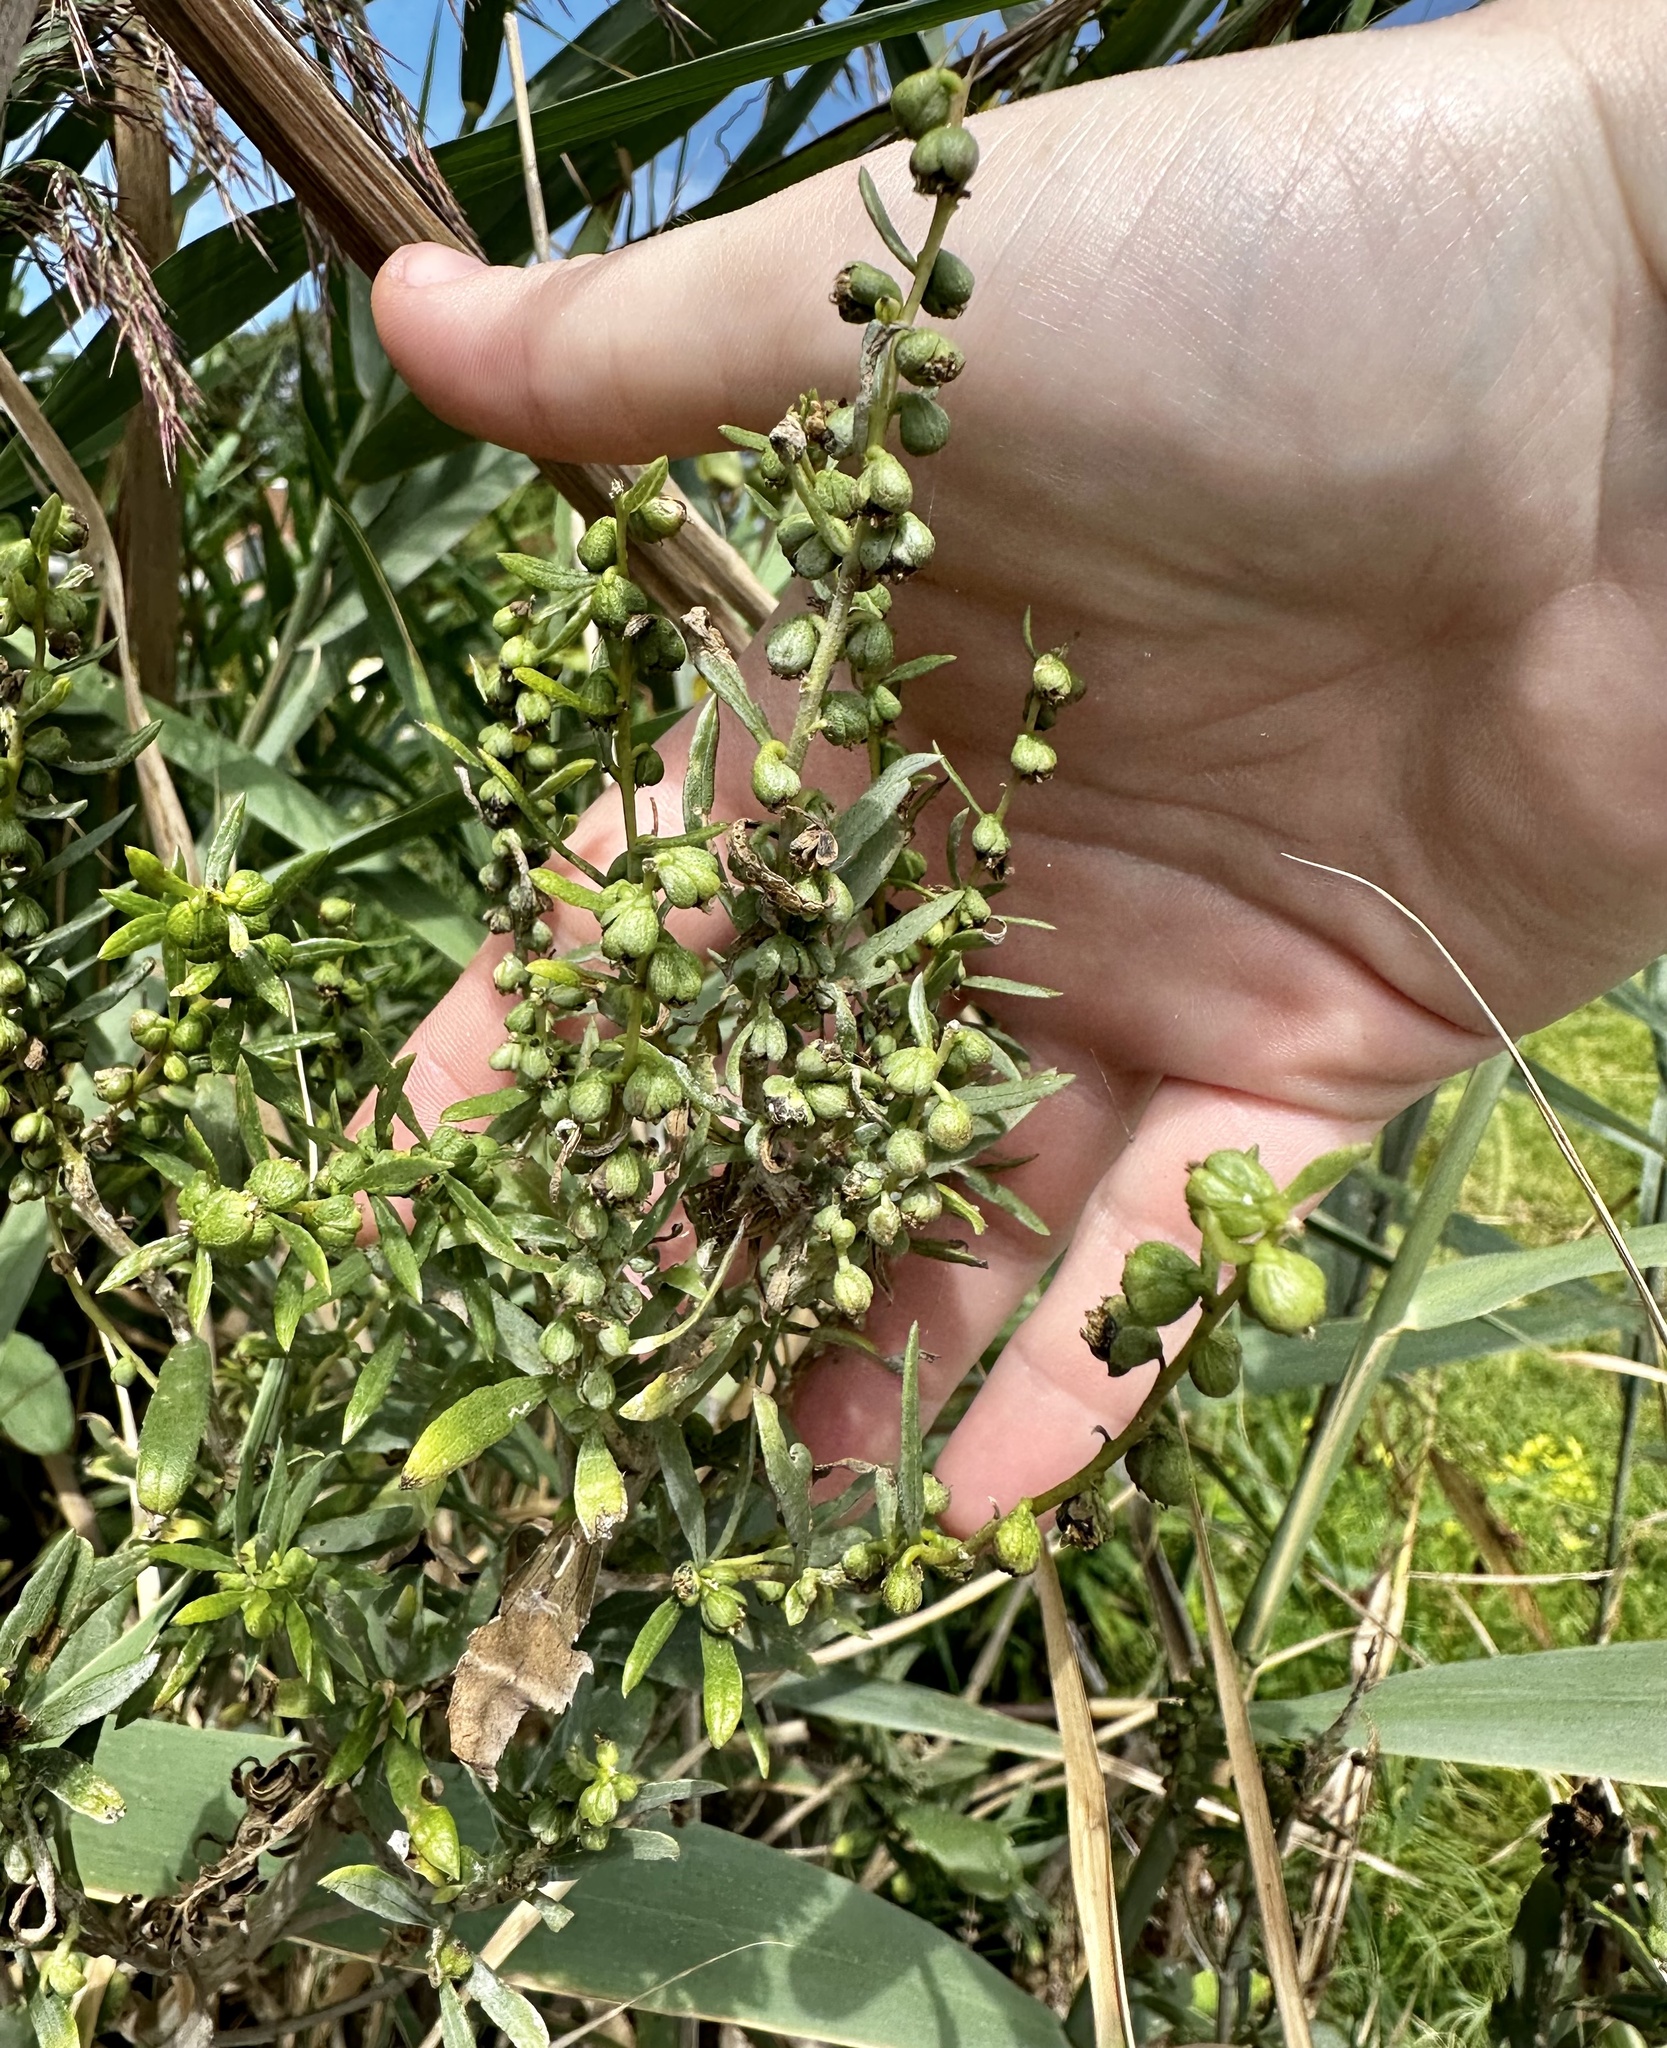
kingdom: Plantae
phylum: Tracheophyta
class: Magnoliopsida
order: Asterales
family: Asteraceae
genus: Iva
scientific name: Iva frutescens
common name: Big-leaved marsh-elder
